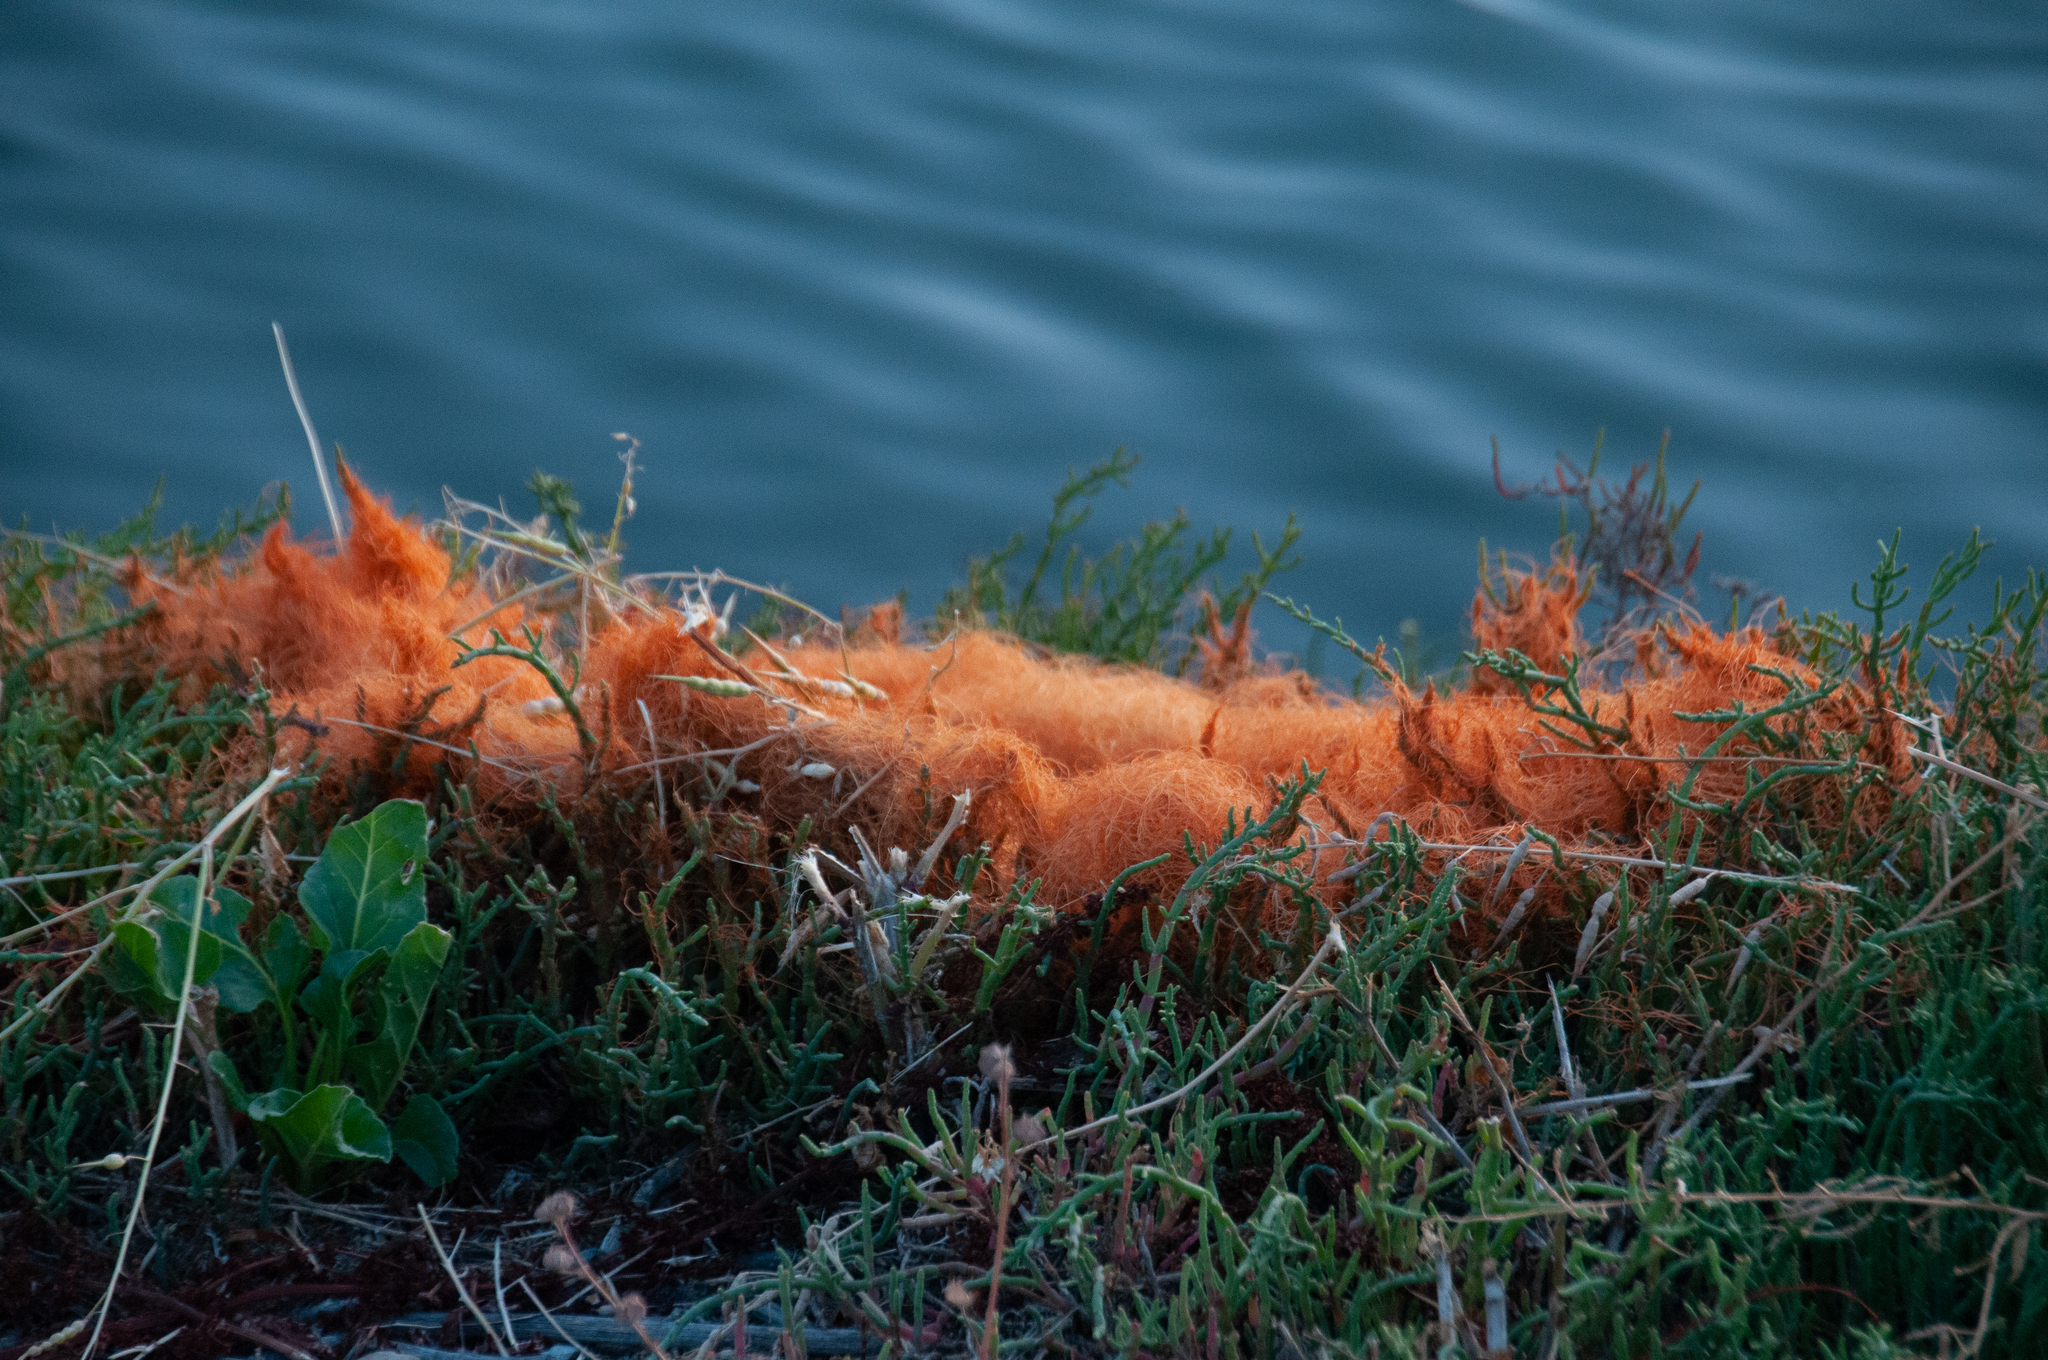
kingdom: Plantae
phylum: Tracheophyta
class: Magnoliopsida
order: Solanales
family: Convolvulaceae
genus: Cuscuta
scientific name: Cuscuta pacifica
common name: Large saltmarsh dodder
